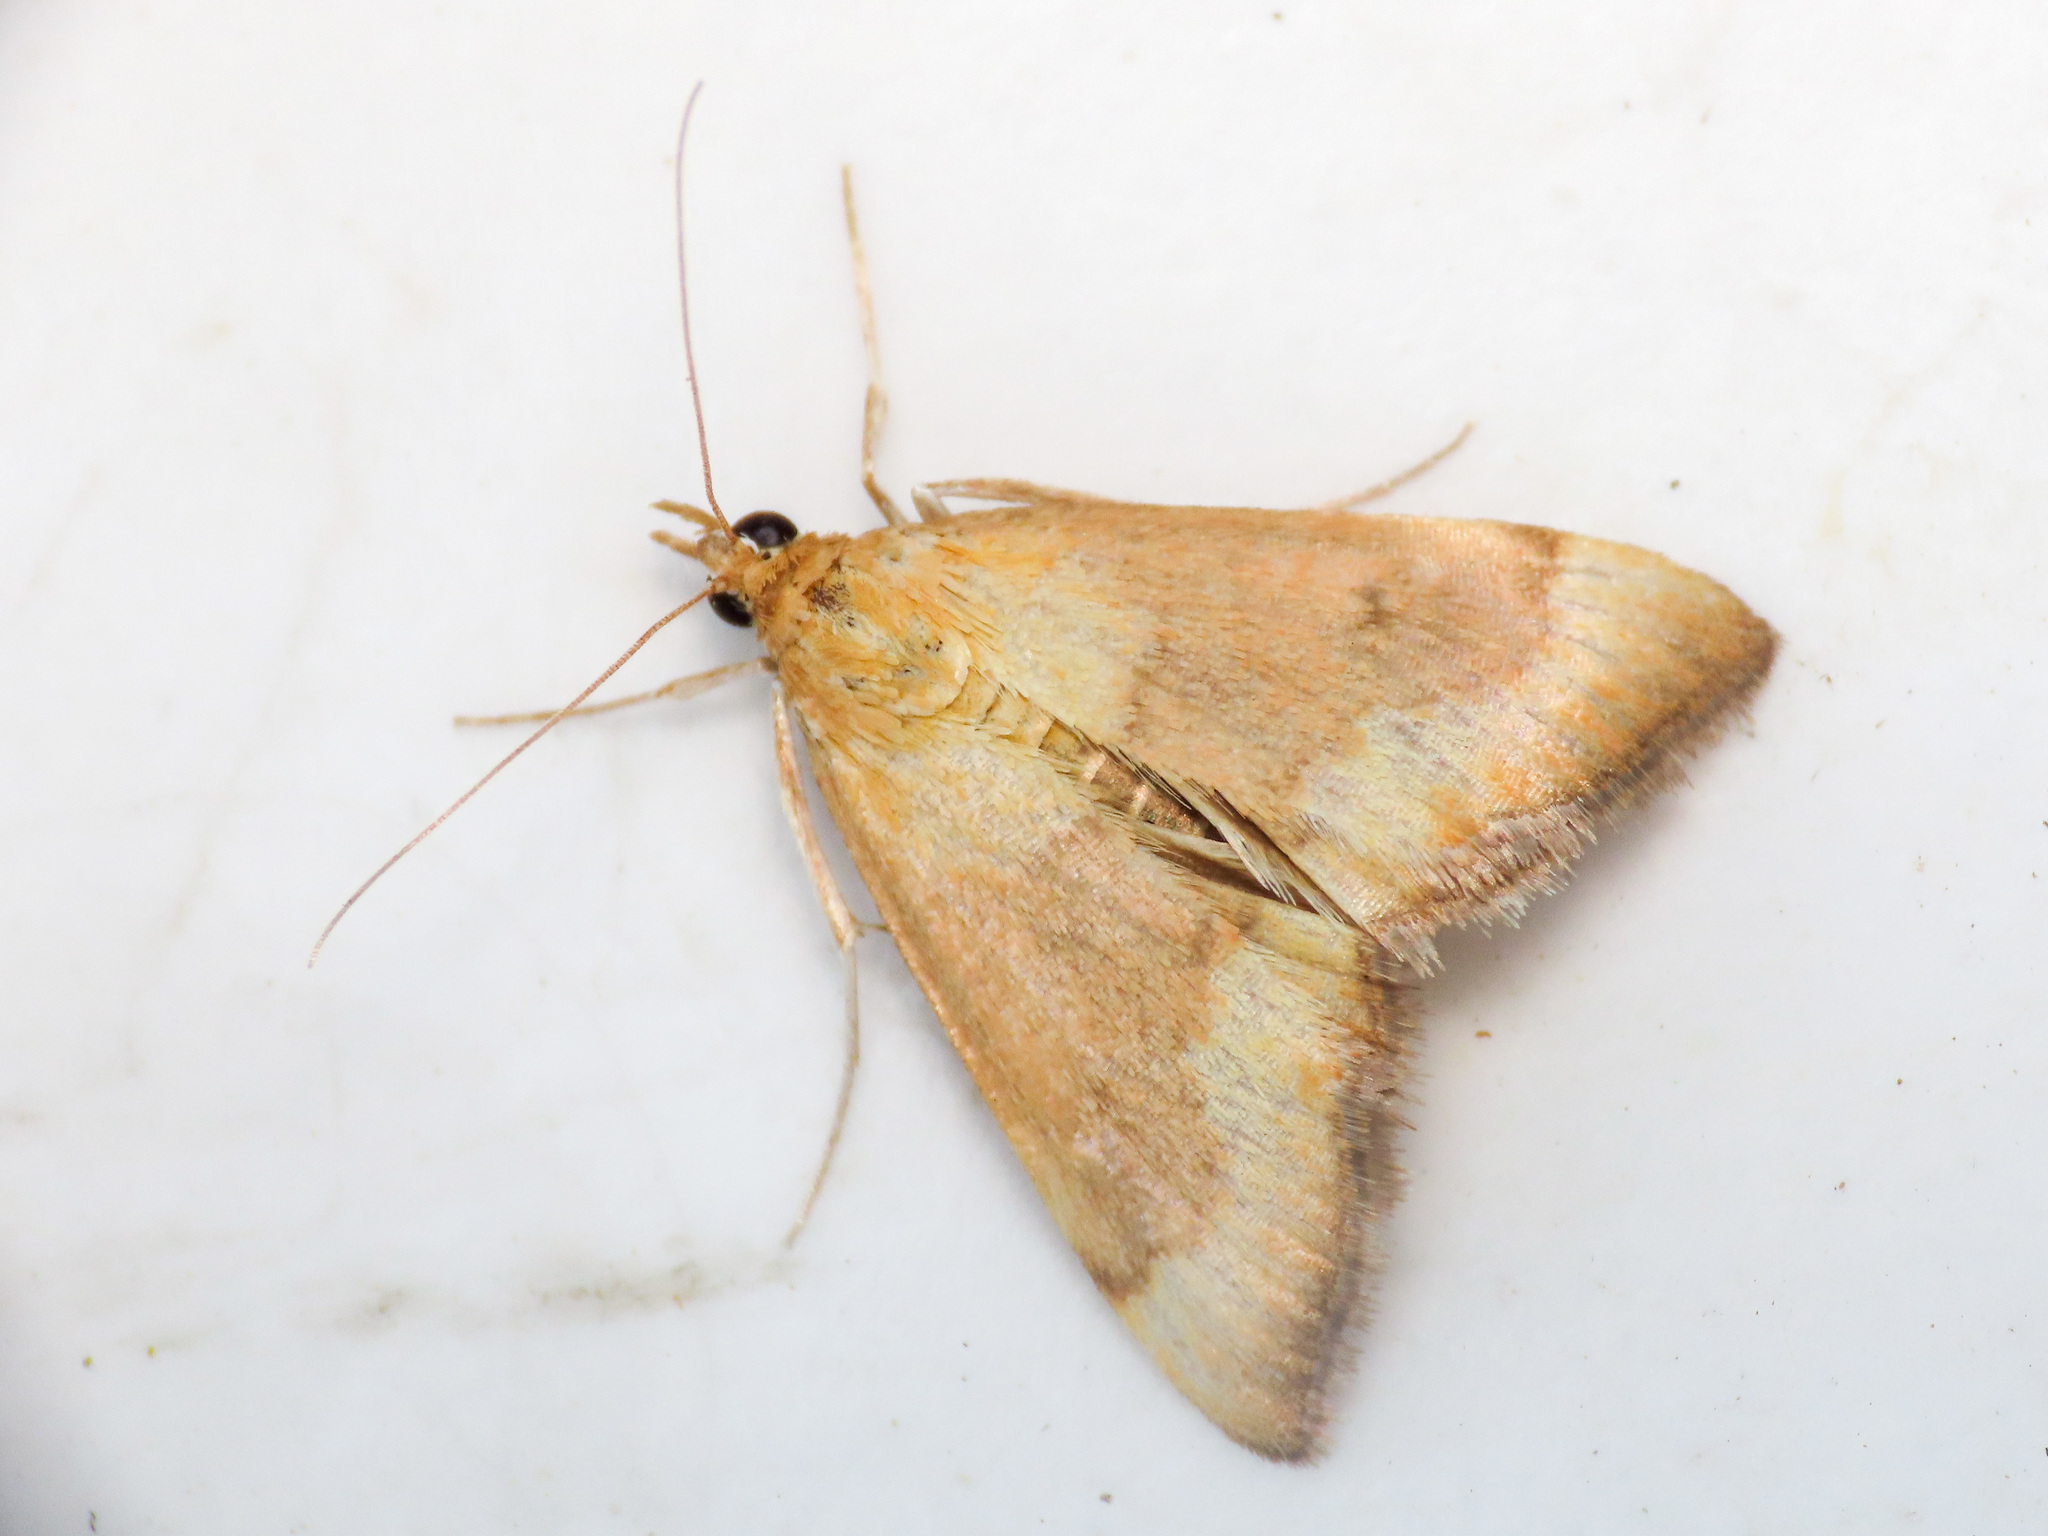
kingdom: Animalia
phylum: Arthropoda
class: Insecta
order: Lepidoptera
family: Crambidae
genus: Pyrausta
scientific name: Pyrausta castalis
